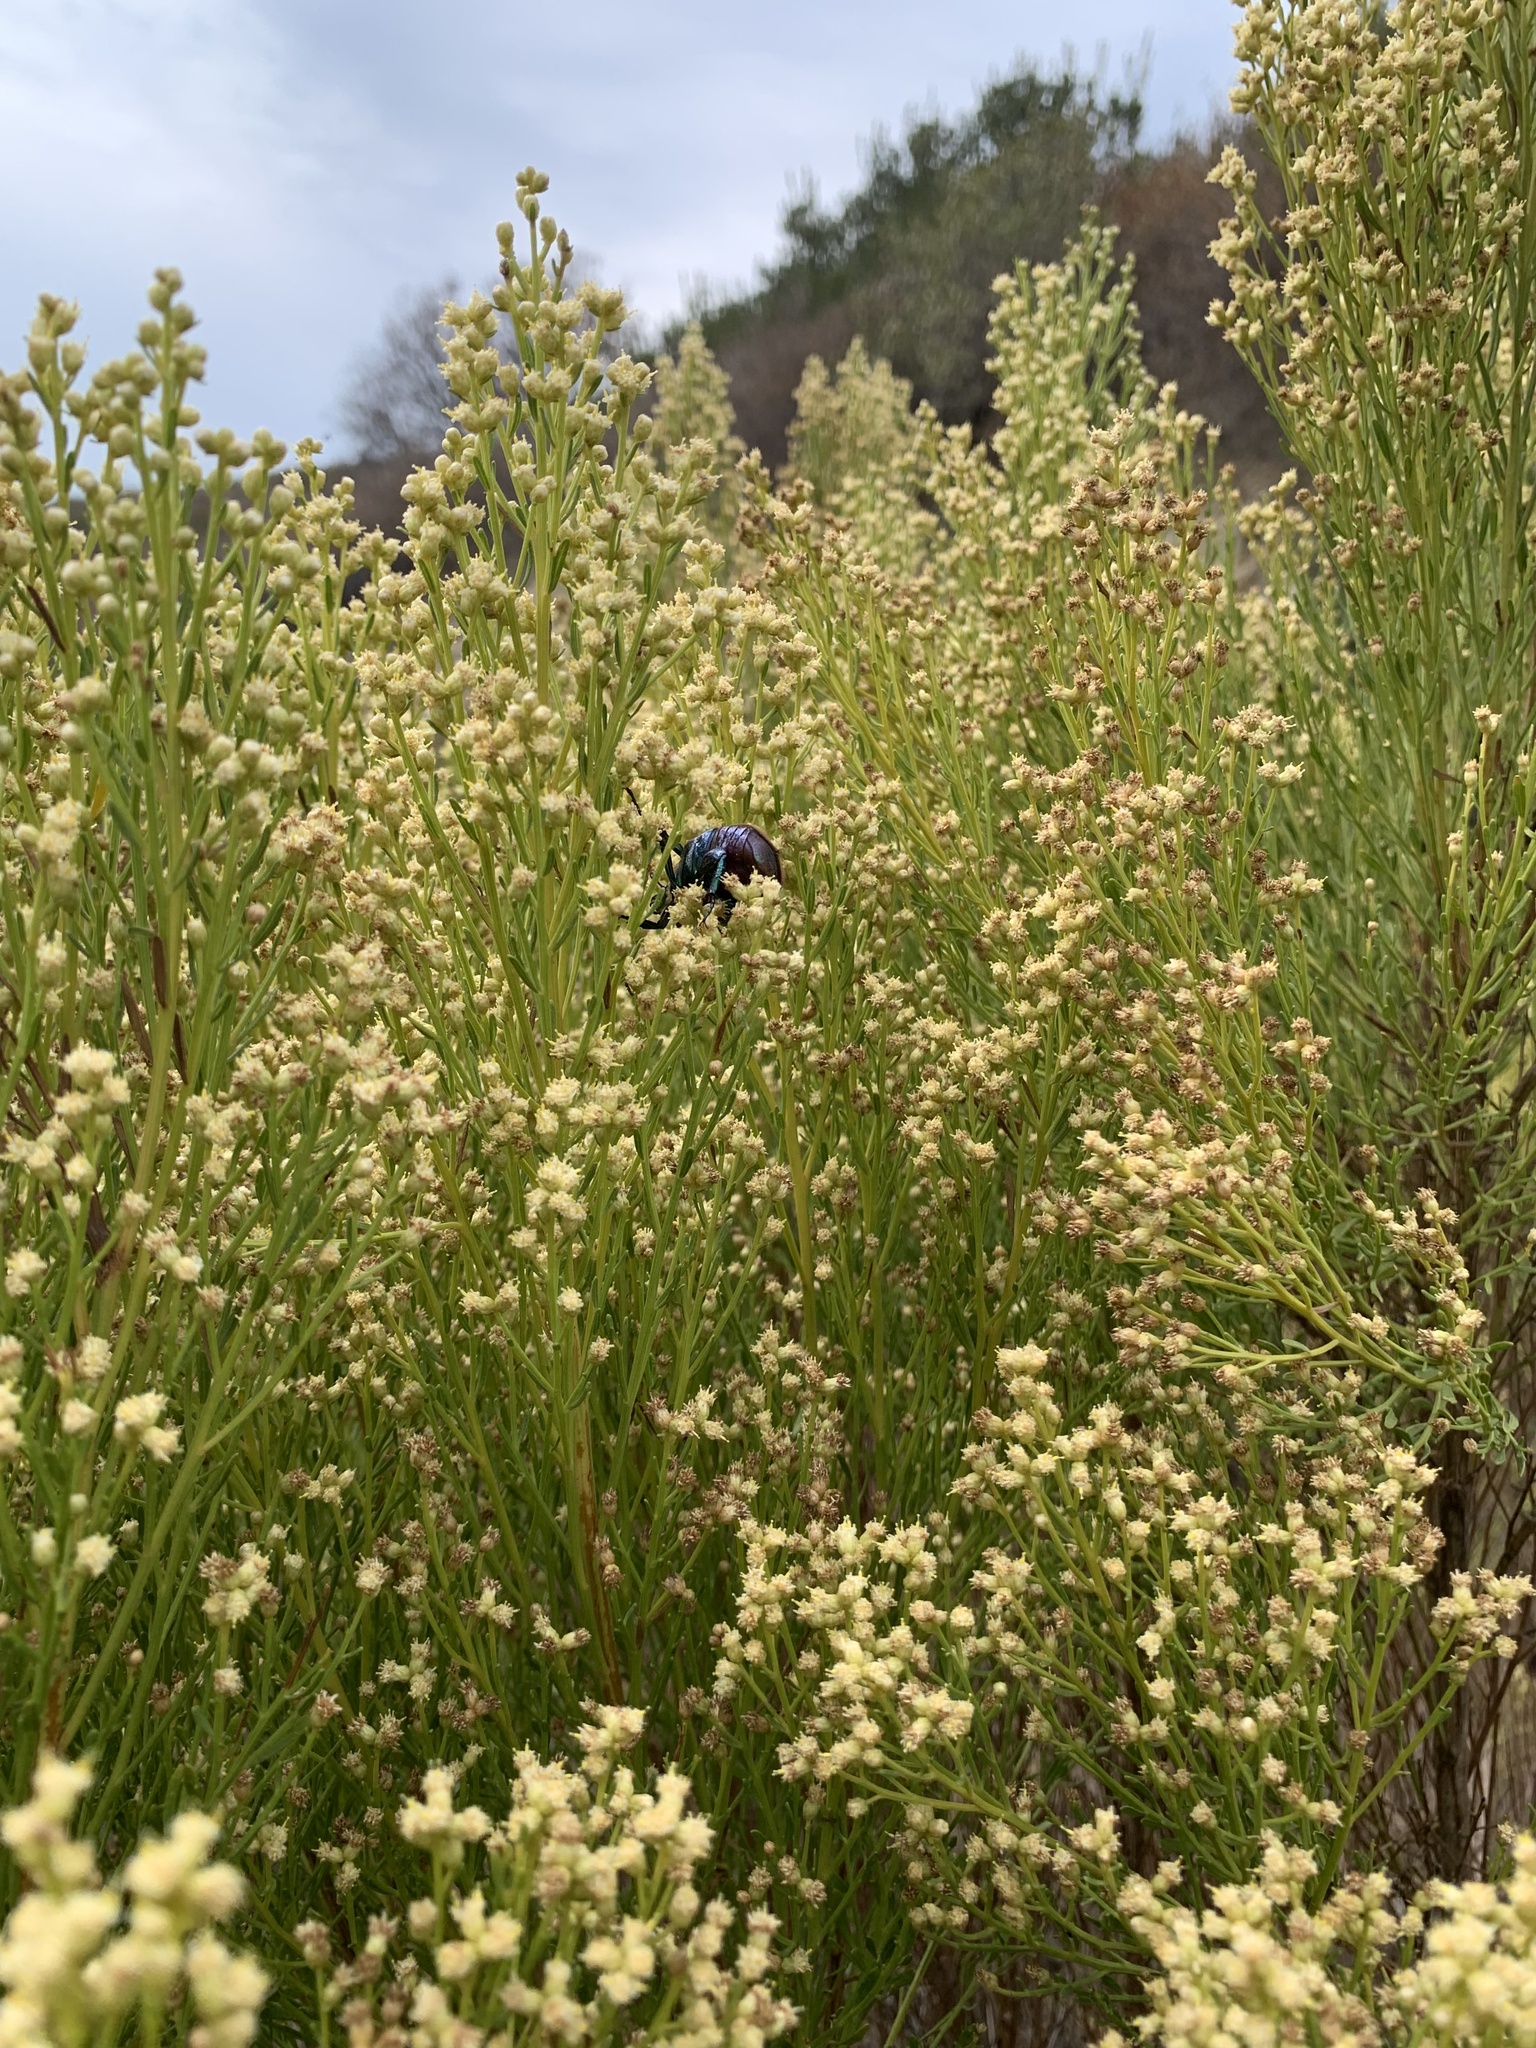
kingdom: Animalia
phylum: Arthropoda
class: Insecta
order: Coleoptera
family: Scarabaeidae
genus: Cotinis
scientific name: Cotinis mutabilis
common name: Figeater beetle
